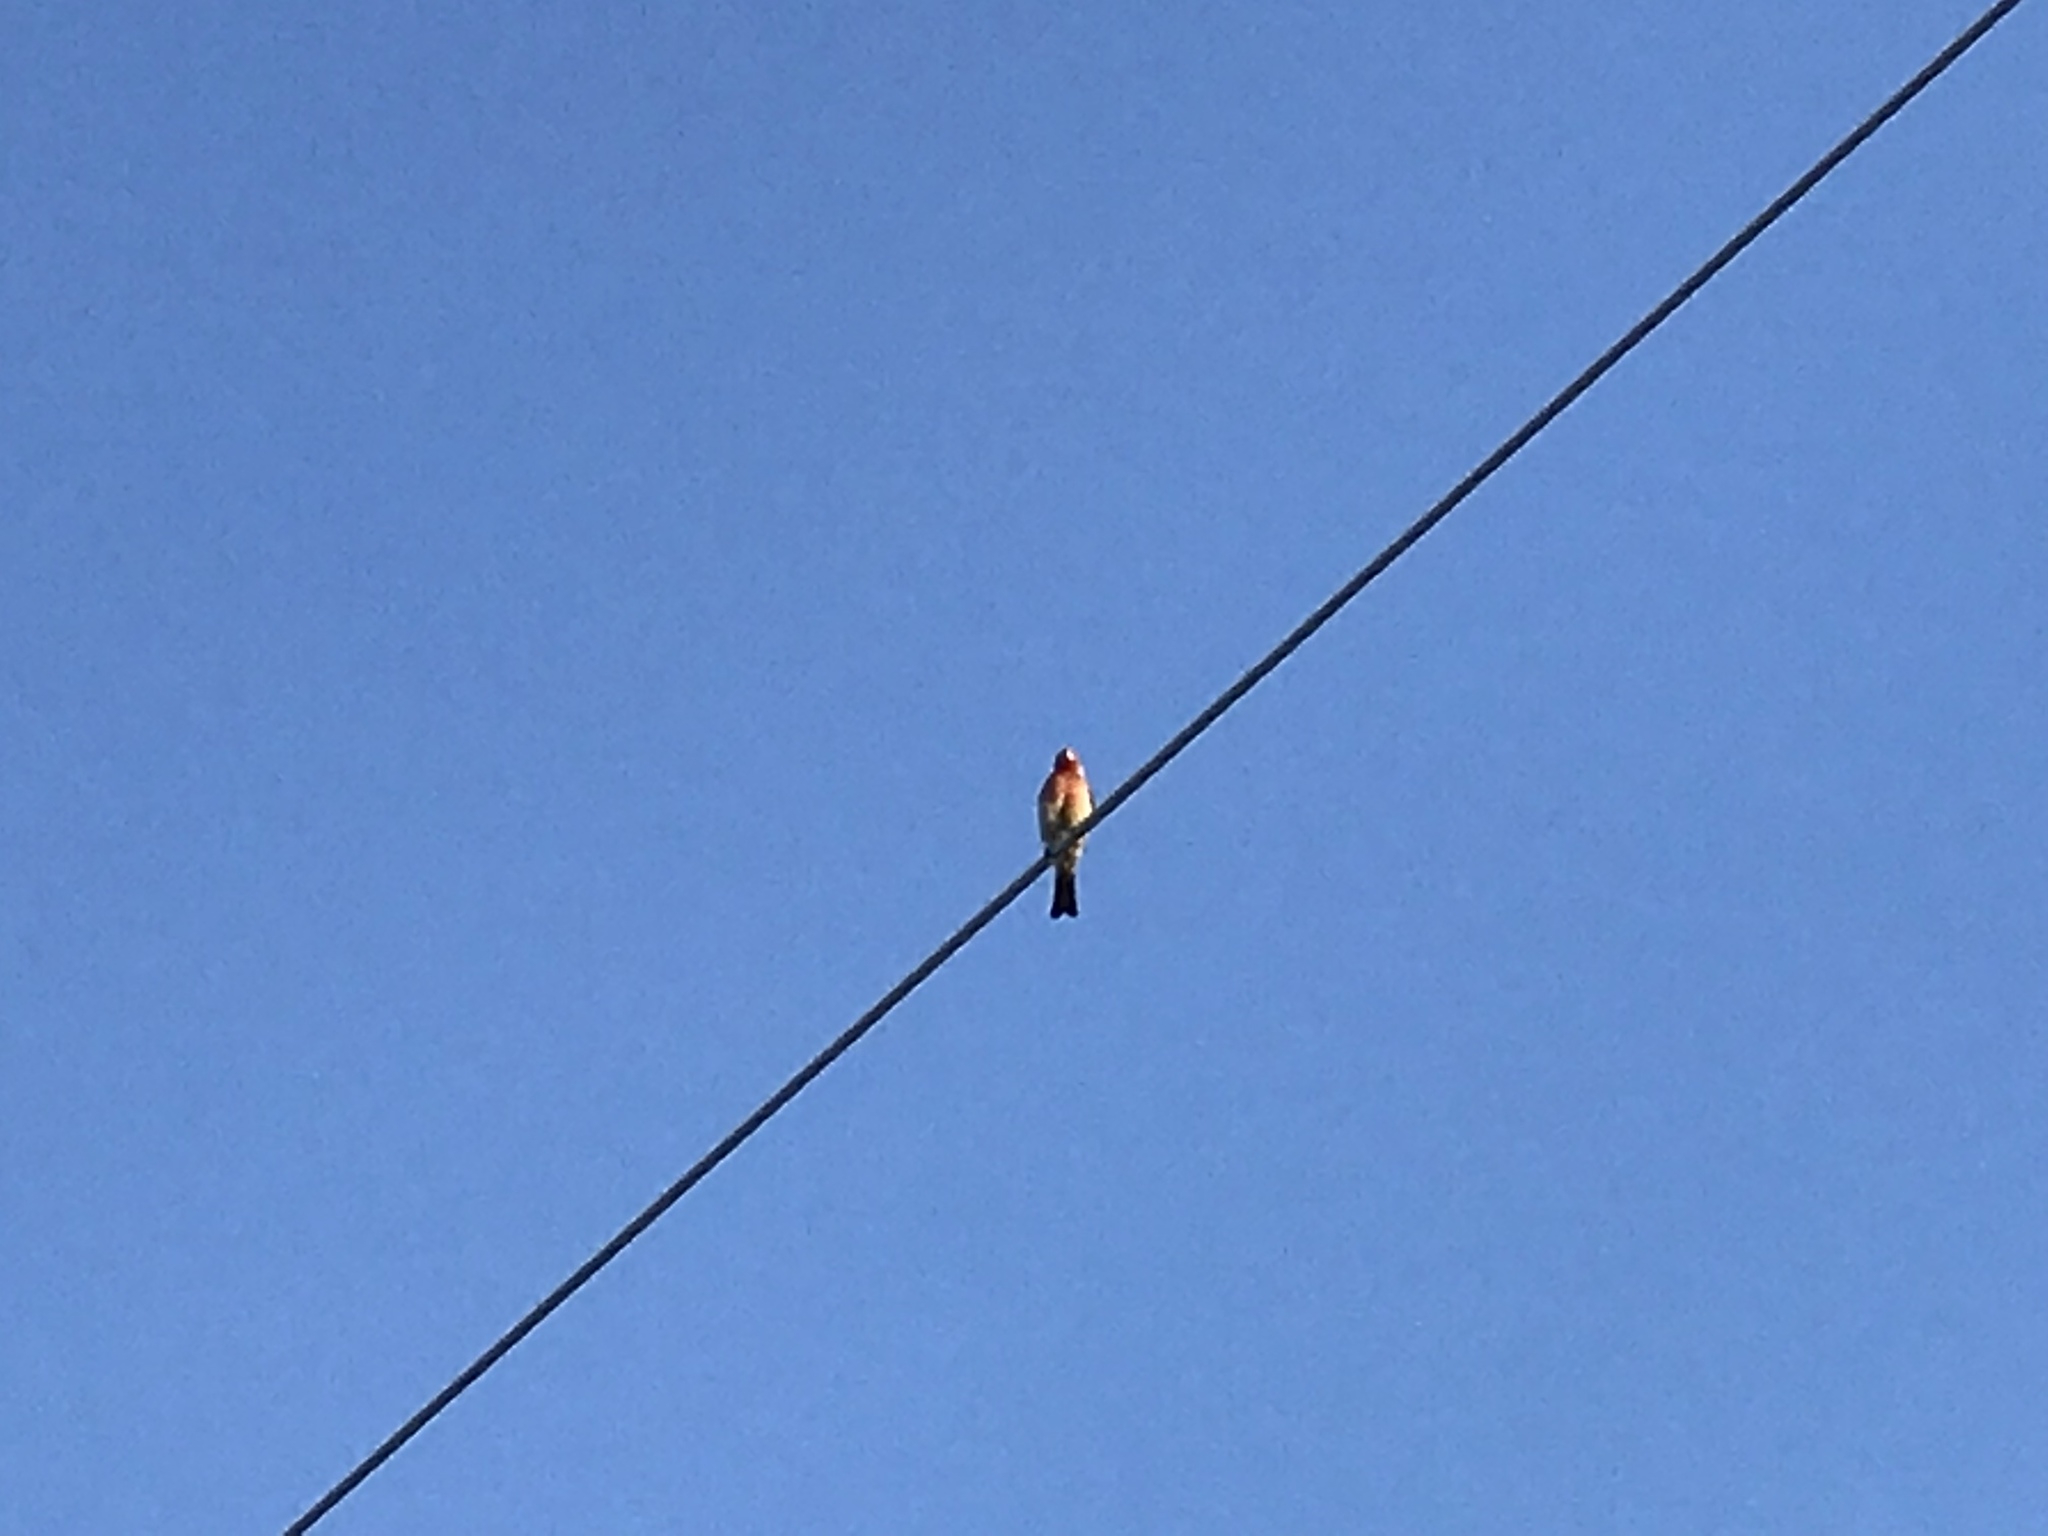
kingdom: Animalia
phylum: Chordata
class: Aves
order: Passeriformes
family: Fringillidae
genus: Haemorhous
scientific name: Haemorhous mexicanus
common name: House finch
